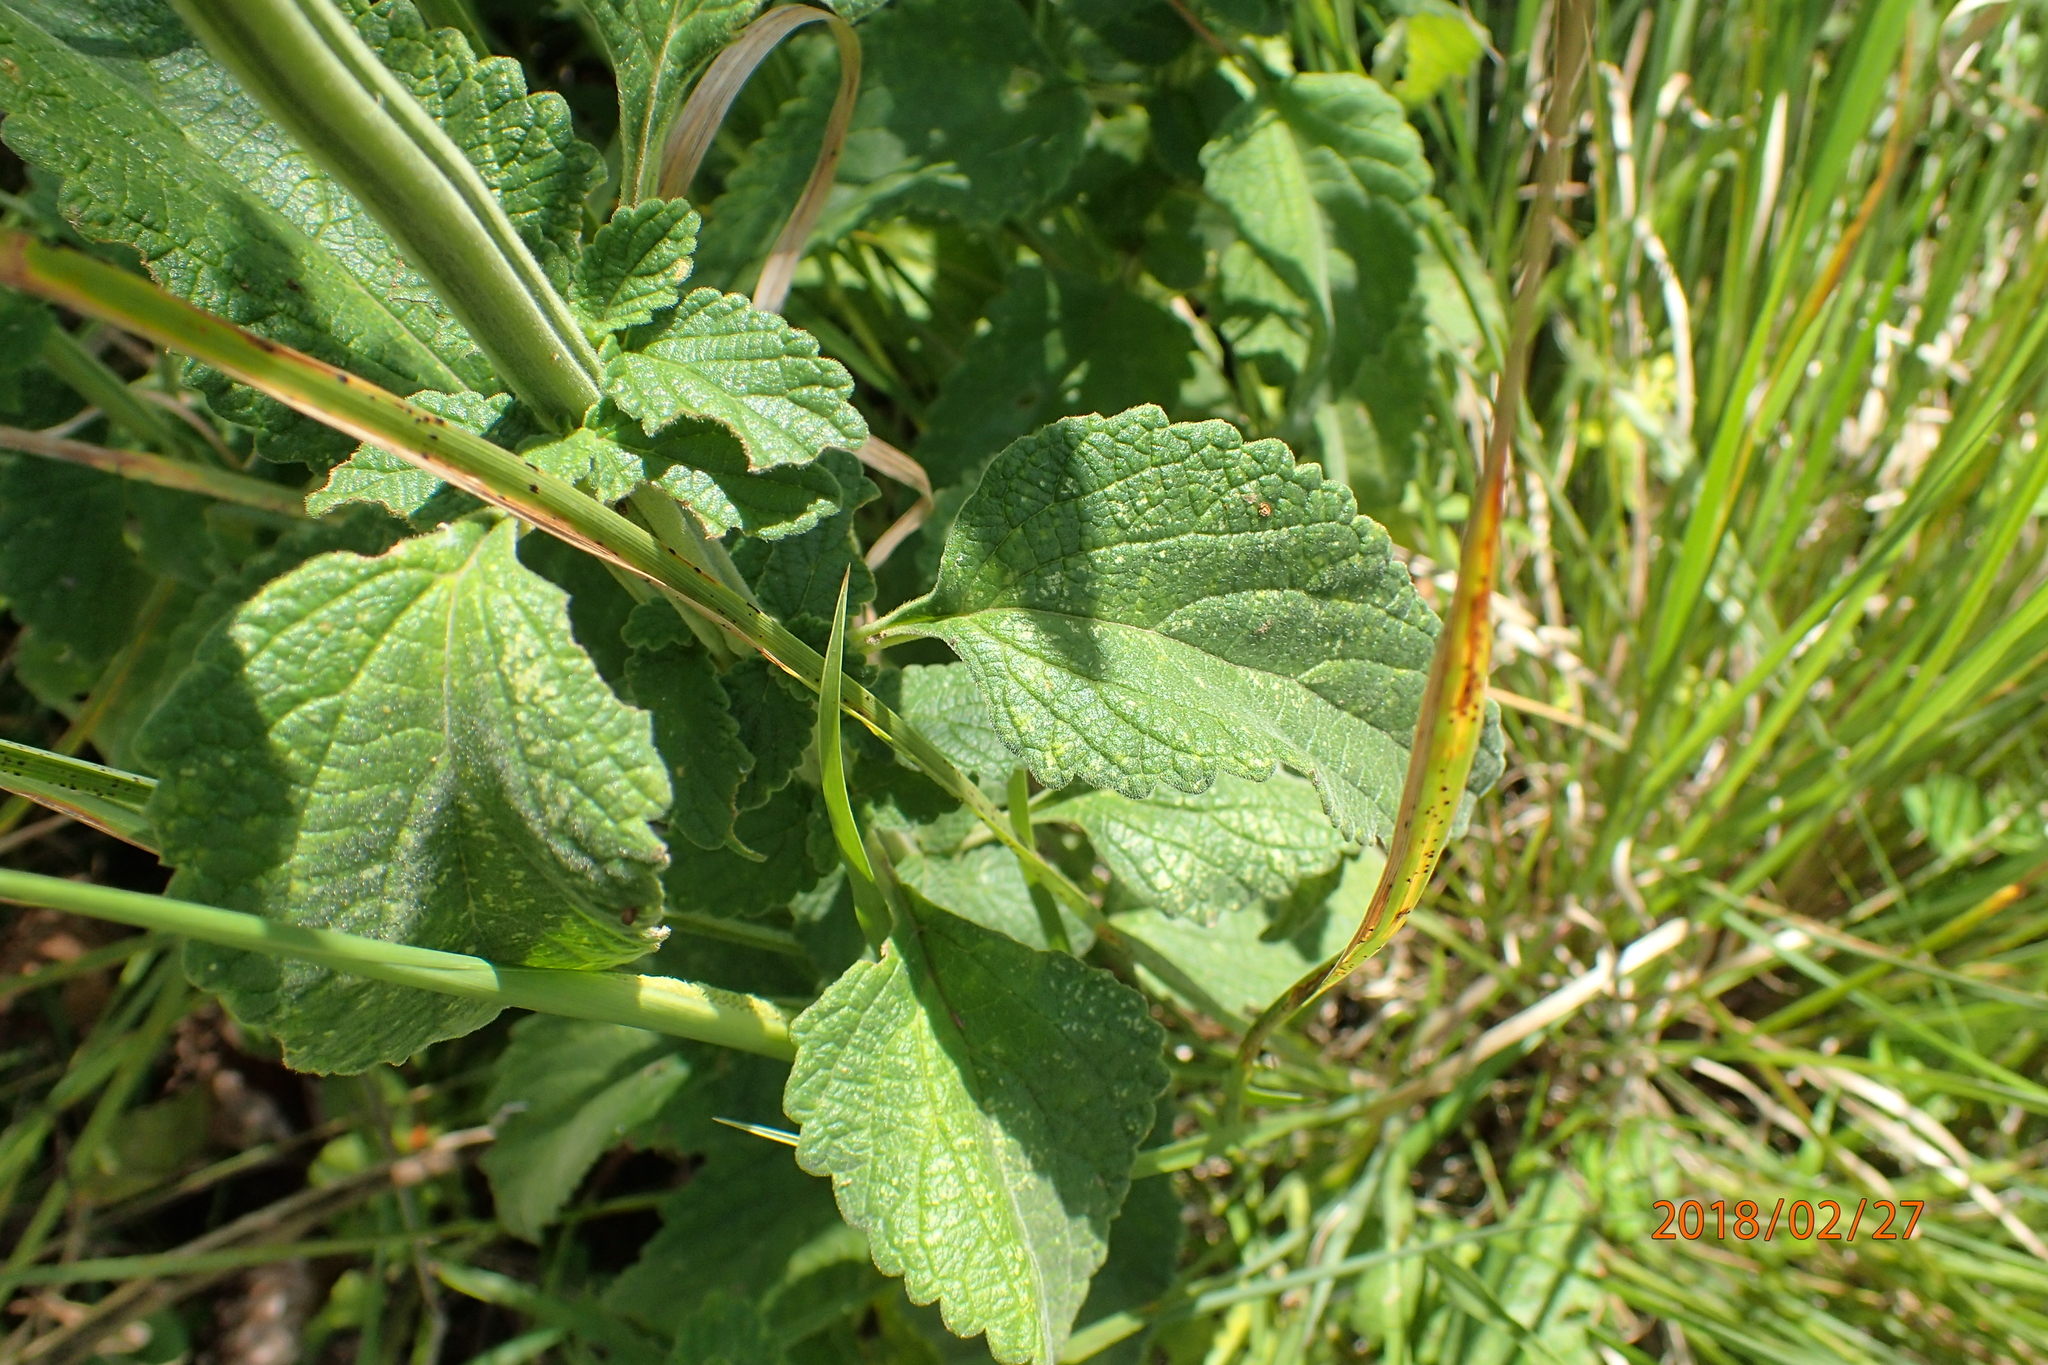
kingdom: Plantae
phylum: Tracheophyta
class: Magnoliopsida
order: Lamiales
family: Lamiaceae
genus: Leonotis
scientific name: Leonotis ocymifolia
